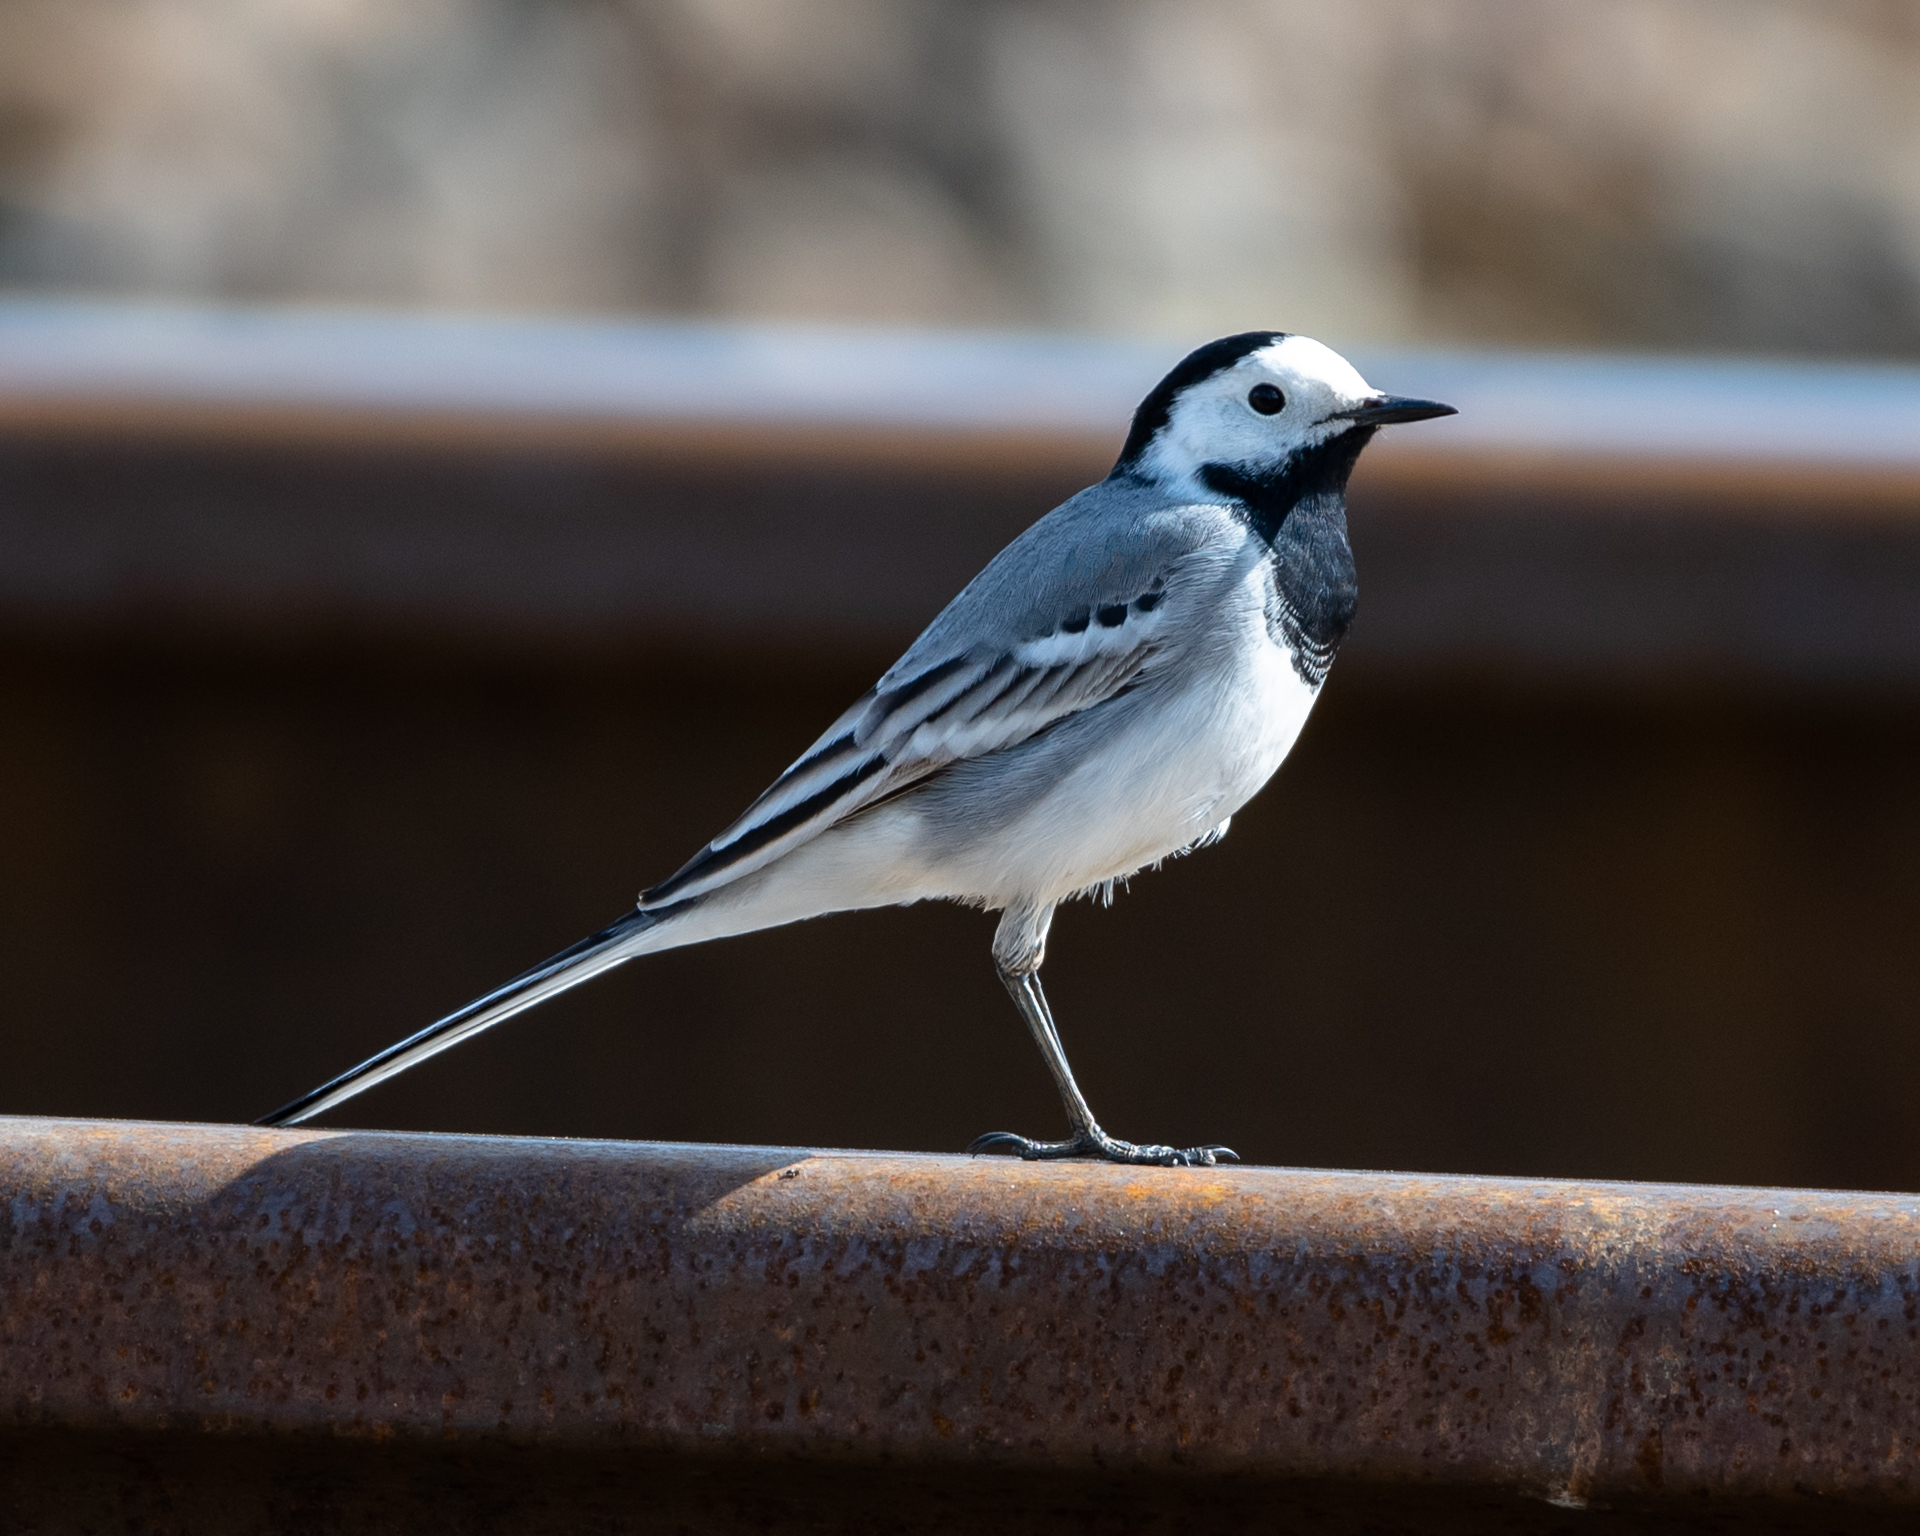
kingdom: Animalia
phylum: Chordata
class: Aves
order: Passeriformes
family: Motacillidae
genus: Motacilla
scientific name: Motacilla alba
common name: White wagtail
